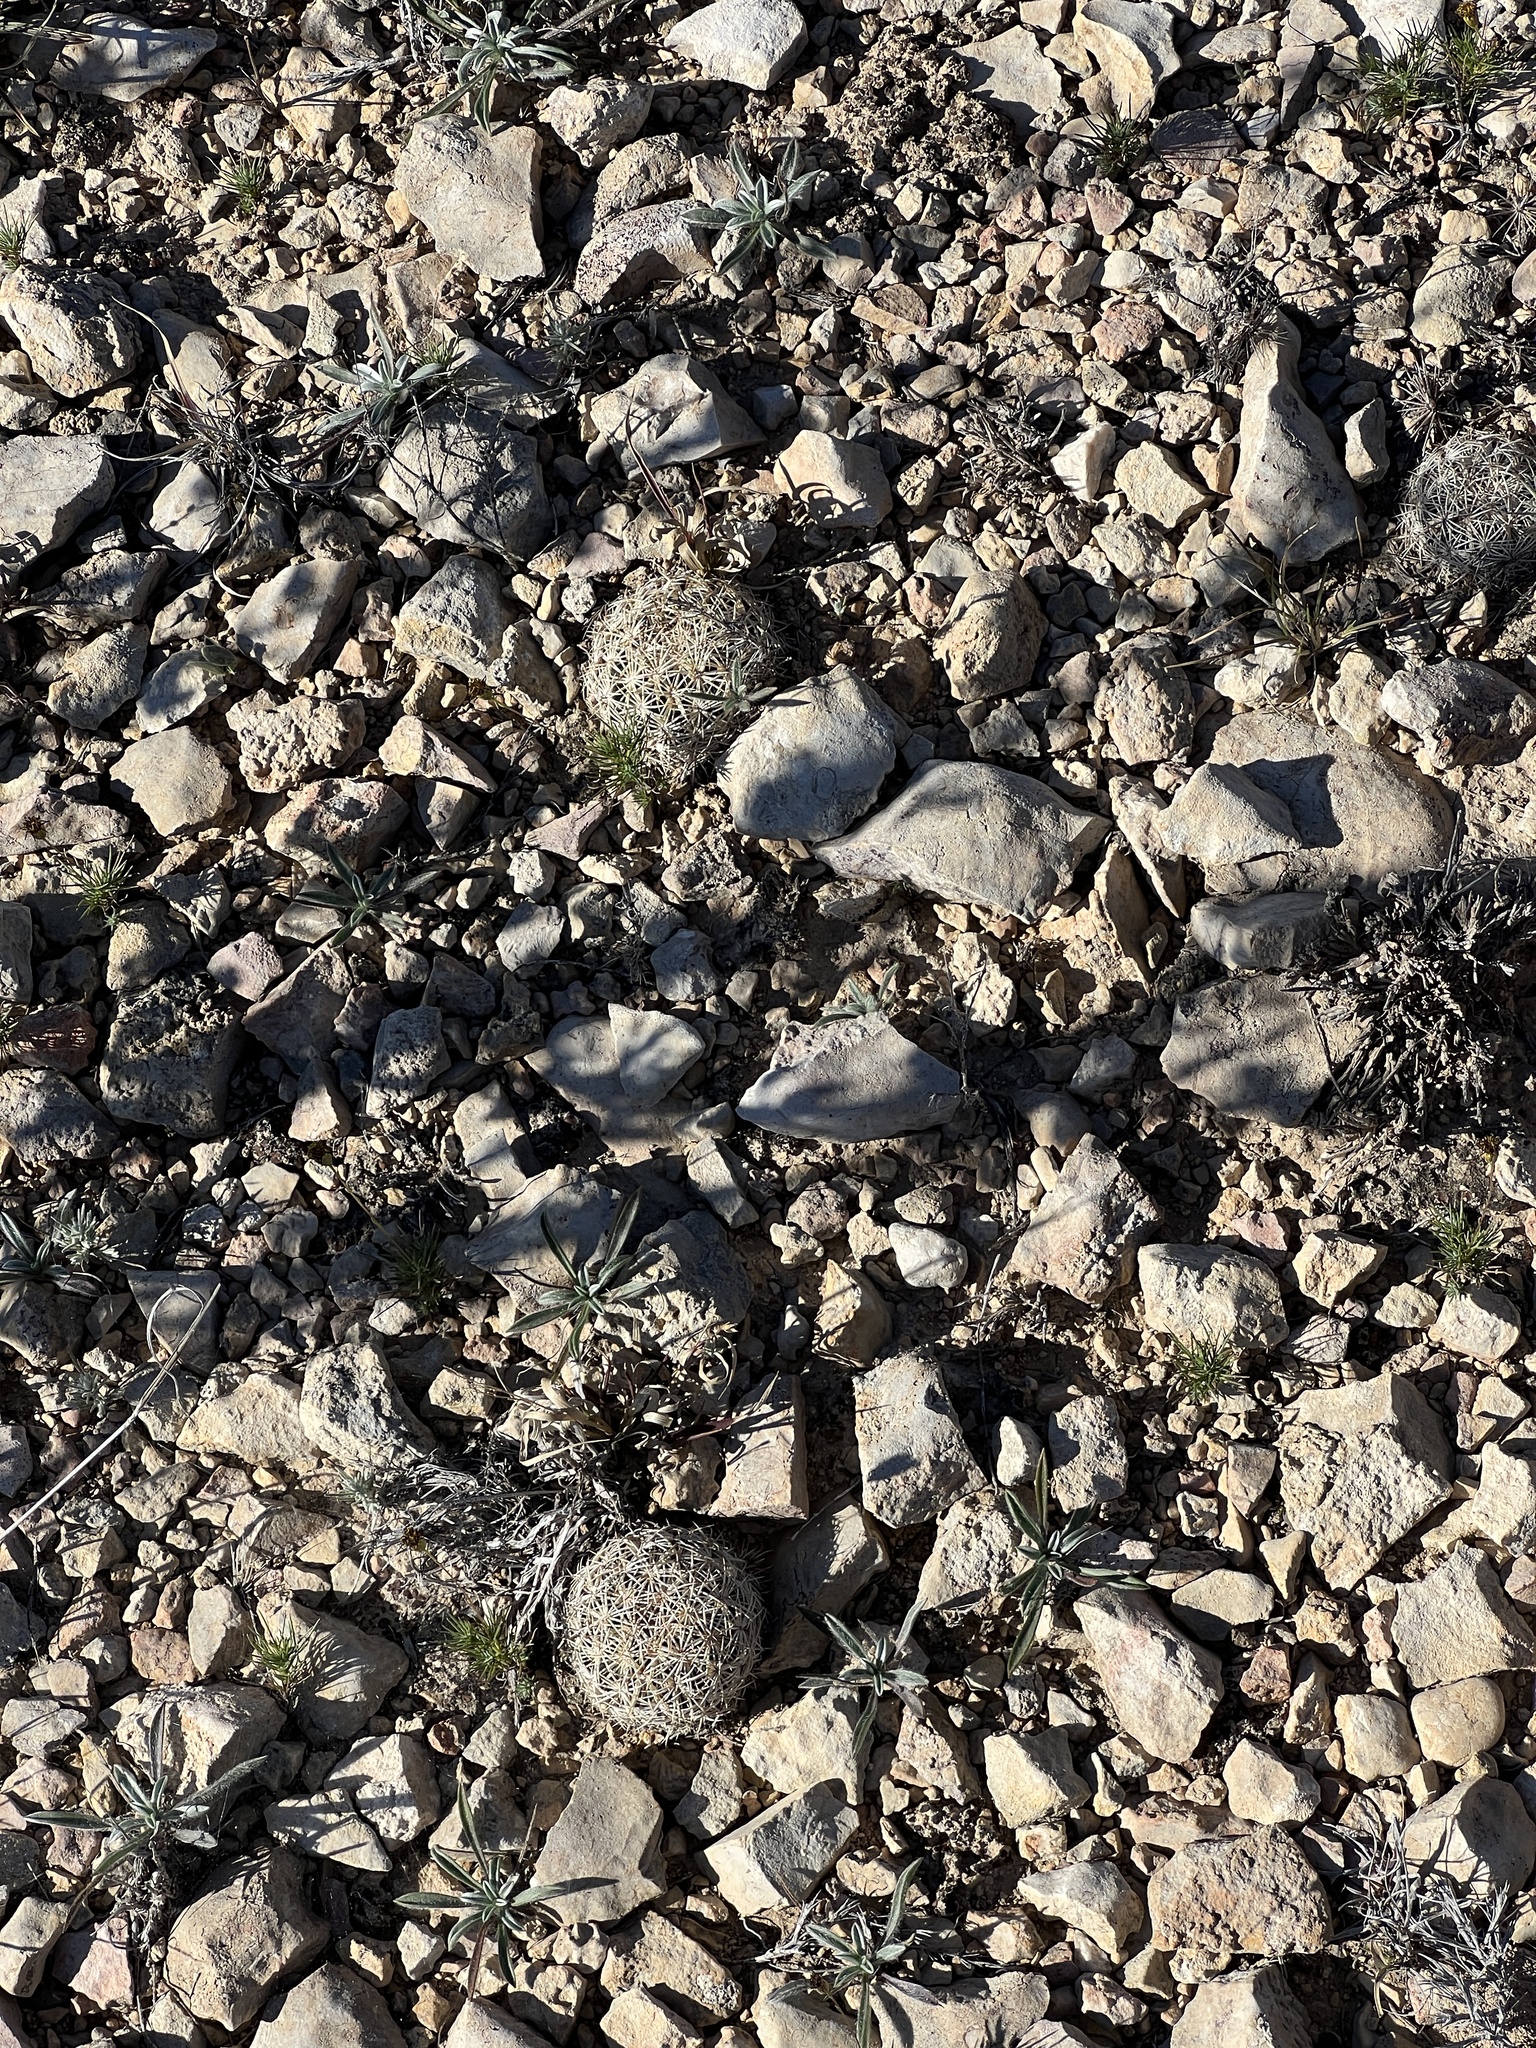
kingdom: Plantae
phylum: Tracheophyta
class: Magnoliopsida
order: Caryophyllales
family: Cactaceae
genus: Coryphantha
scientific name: Coryphantha echinus
